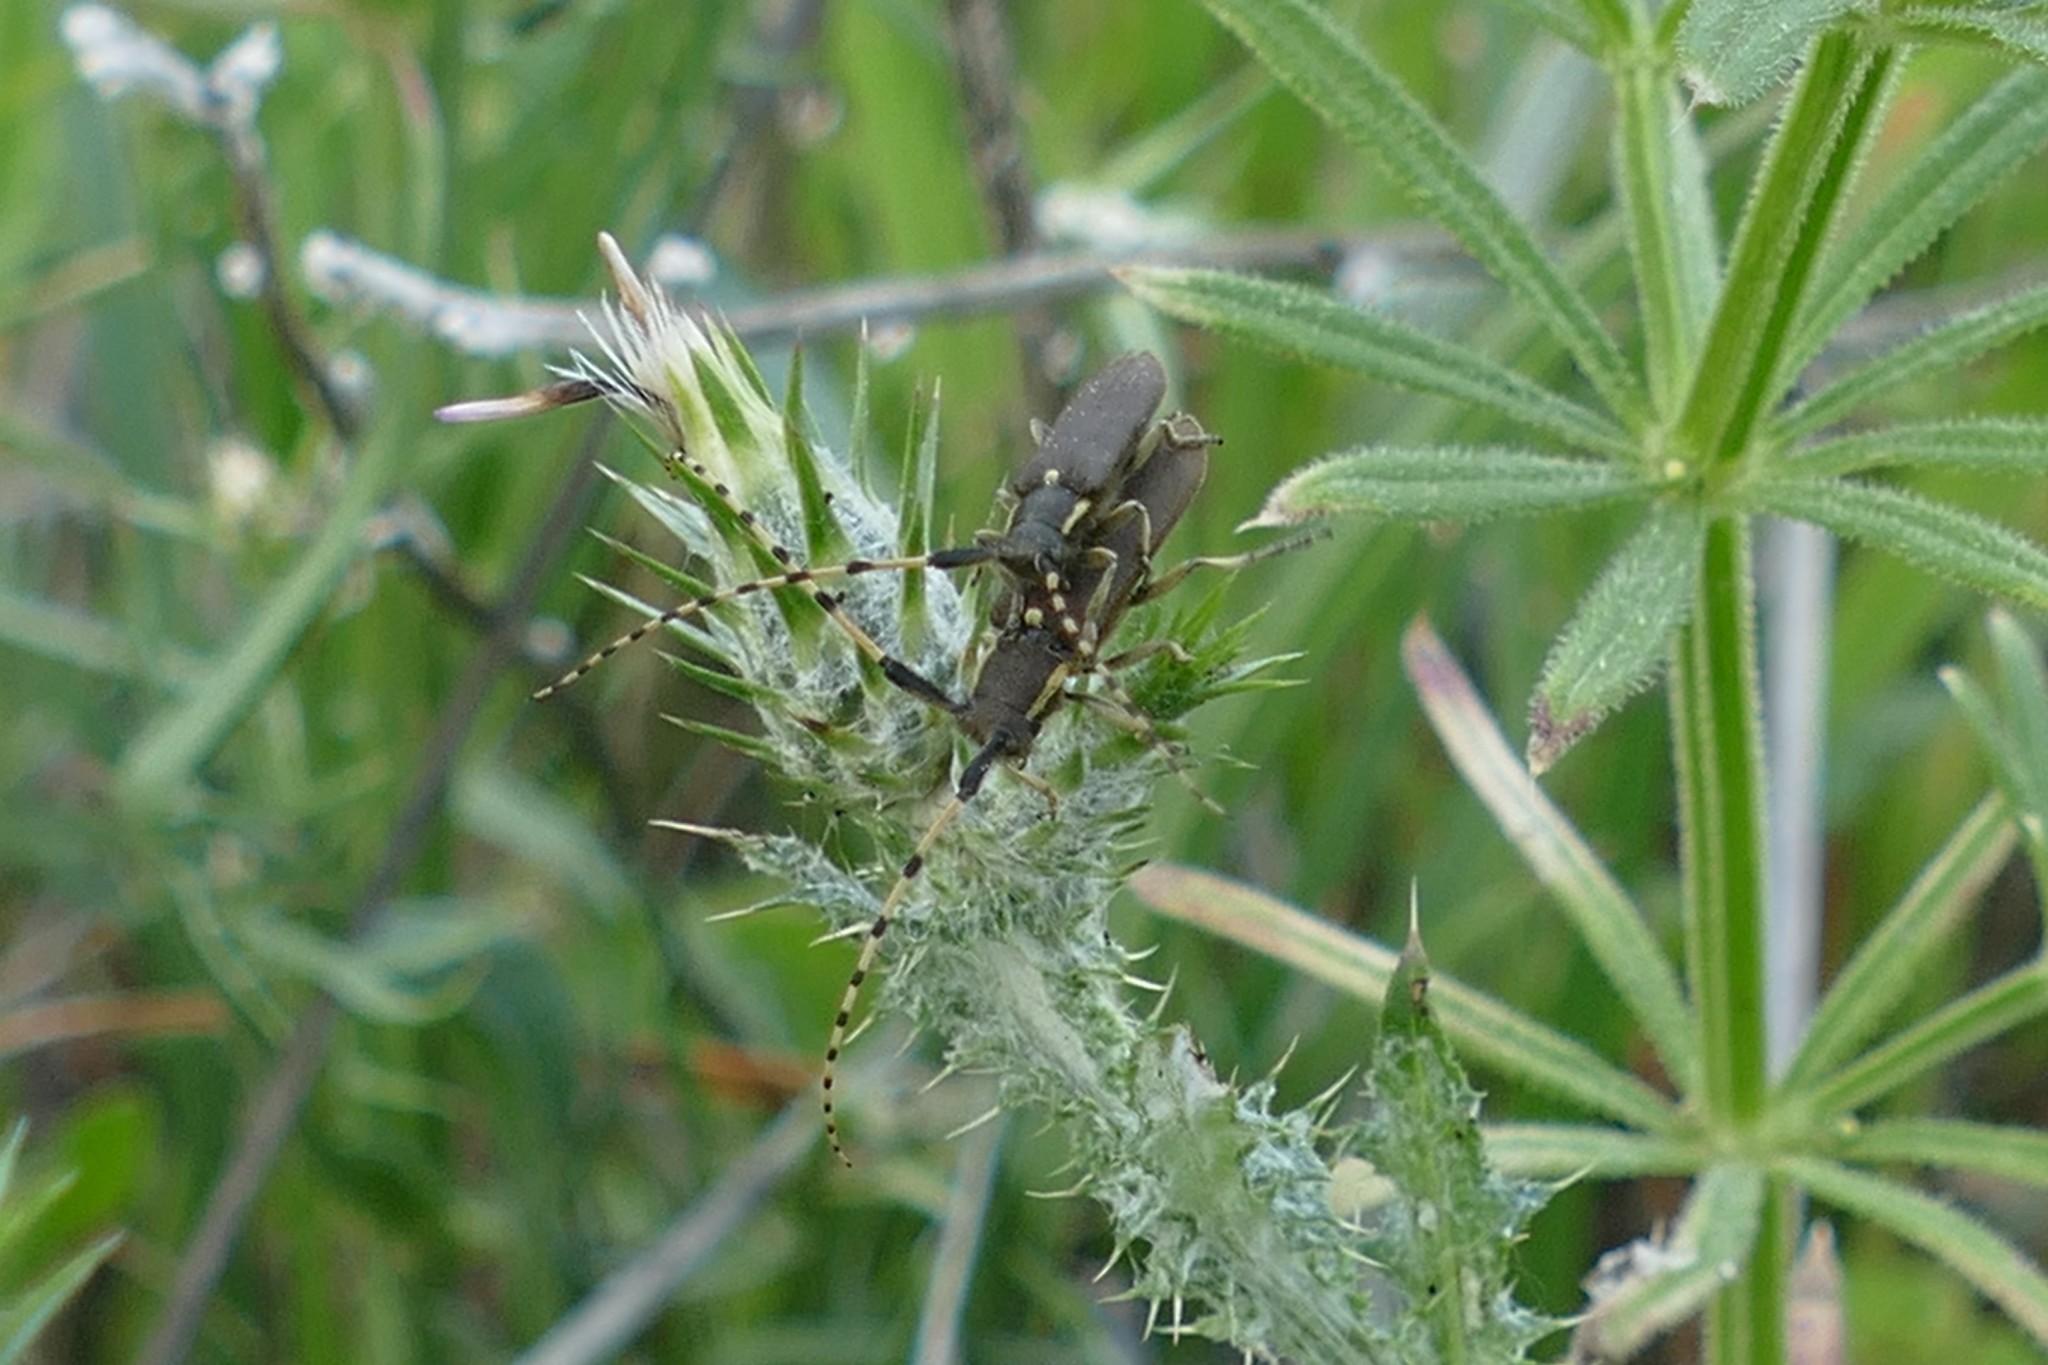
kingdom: Animalia
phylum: Arthropoda
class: Insecta
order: Coleoptera
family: Cerambycidae
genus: Agapanthia
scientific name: Agapanthia annularis
